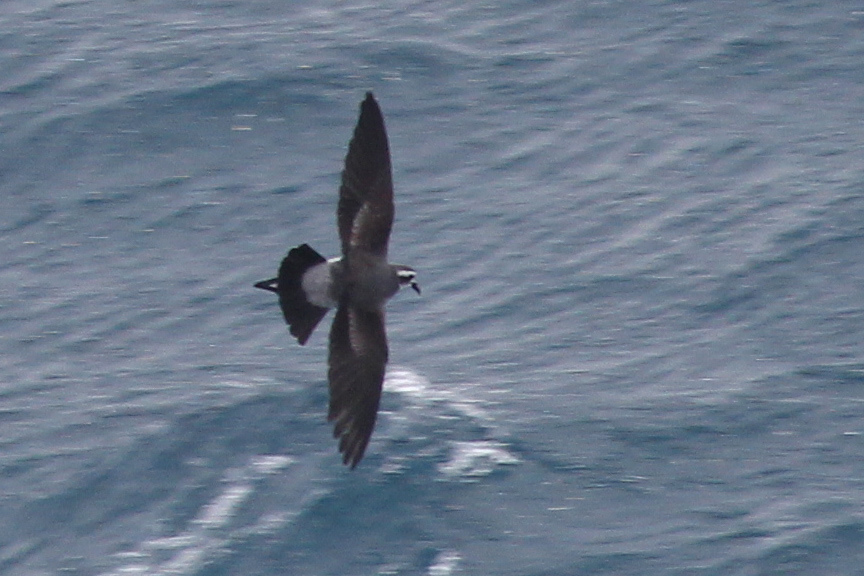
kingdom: Animalia
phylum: Chordata
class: Aves
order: Procellariiformes
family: Hydrobatidae
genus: Pelagodroma
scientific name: Pelagodroma marina
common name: White-faced storm-petrel
